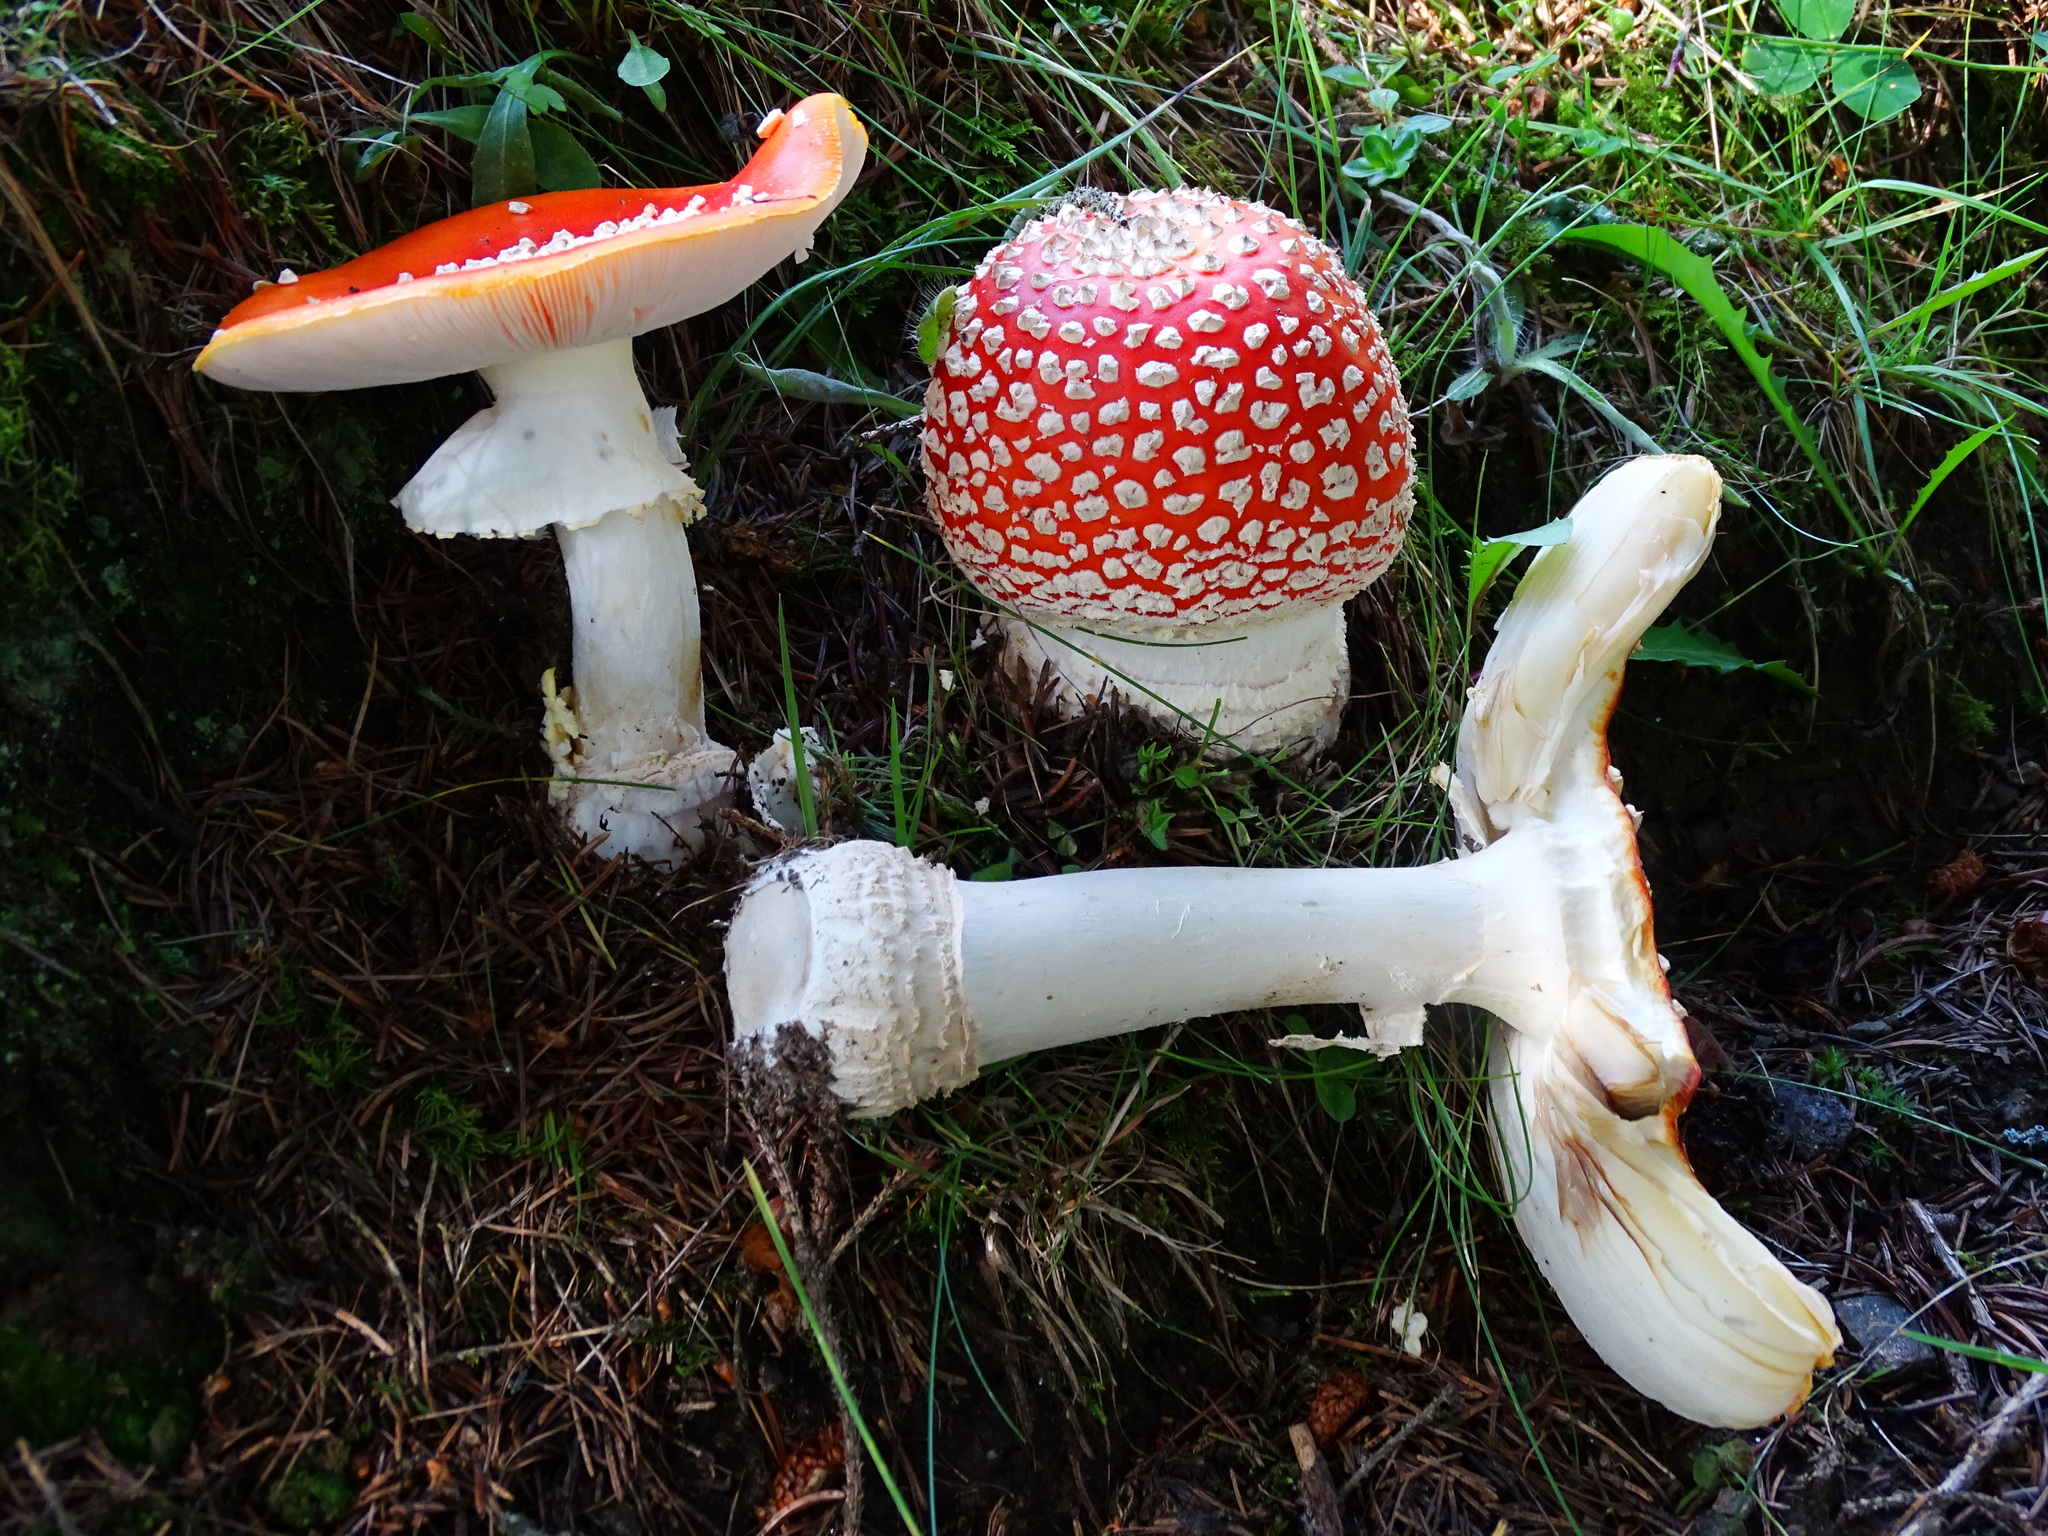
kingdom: Fungi
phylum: Basidiomycota
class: Agaricomycetes
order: Agaricales
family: Amanitaceae
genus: Amanita
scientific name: Amanita muscaria
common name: Fly agaric
